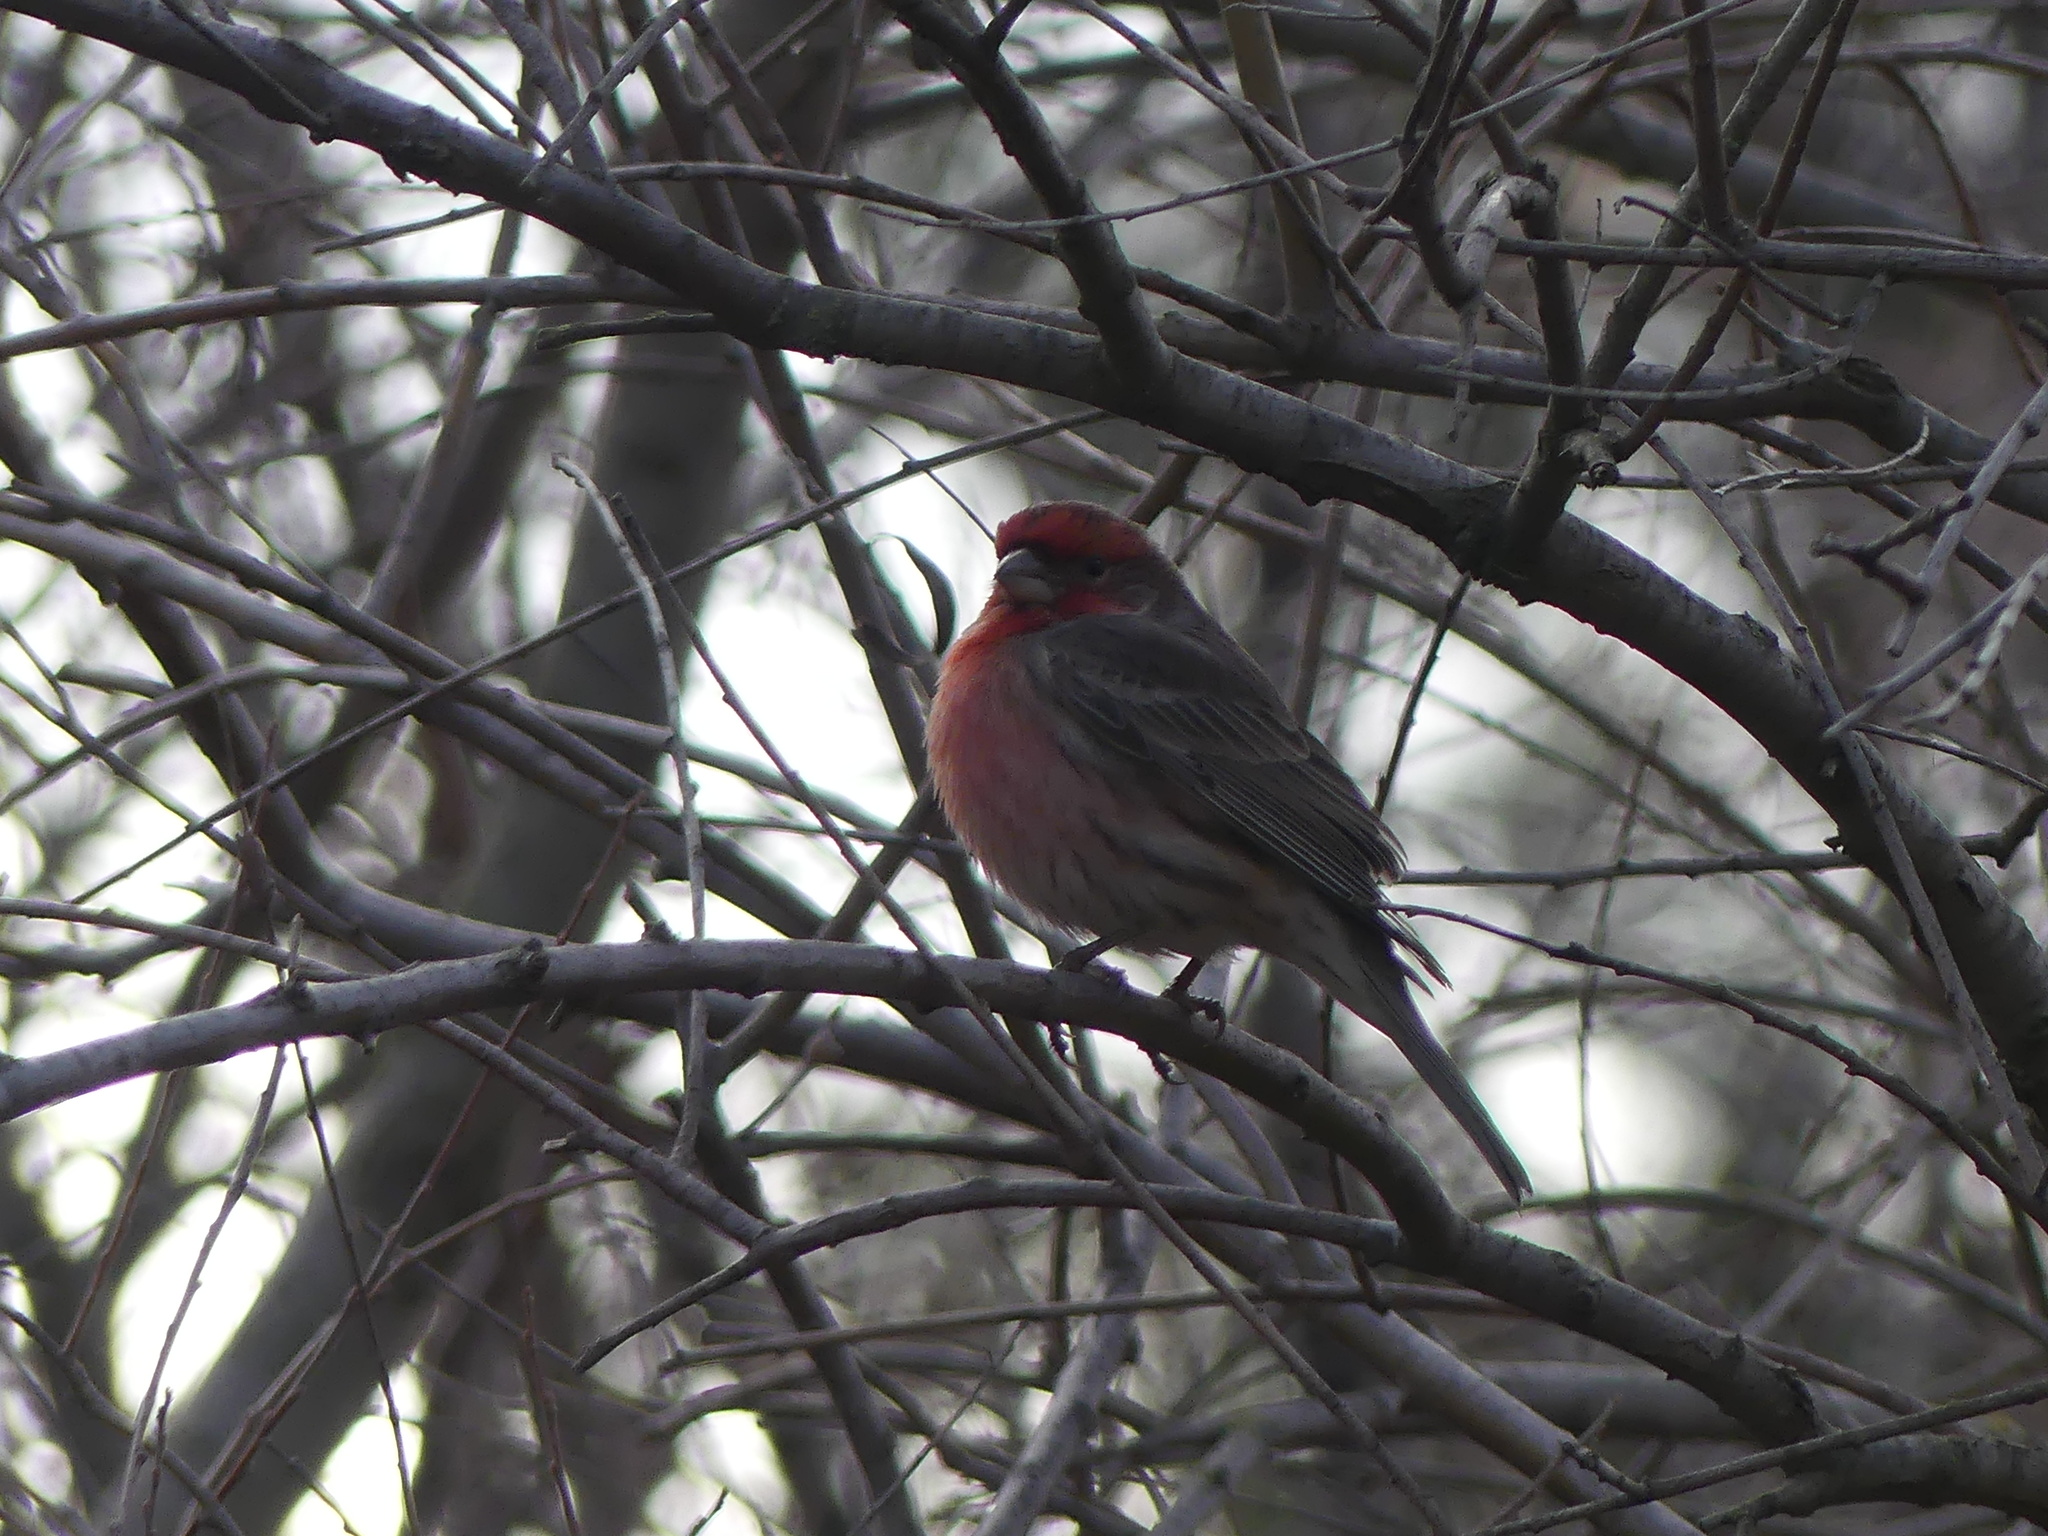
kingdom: Animalia
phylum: Chordata
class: Aves
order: Passeriformes
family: Fringillidae
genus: Haemorhous
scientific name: Haemorhous mexicanus
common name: House finch
